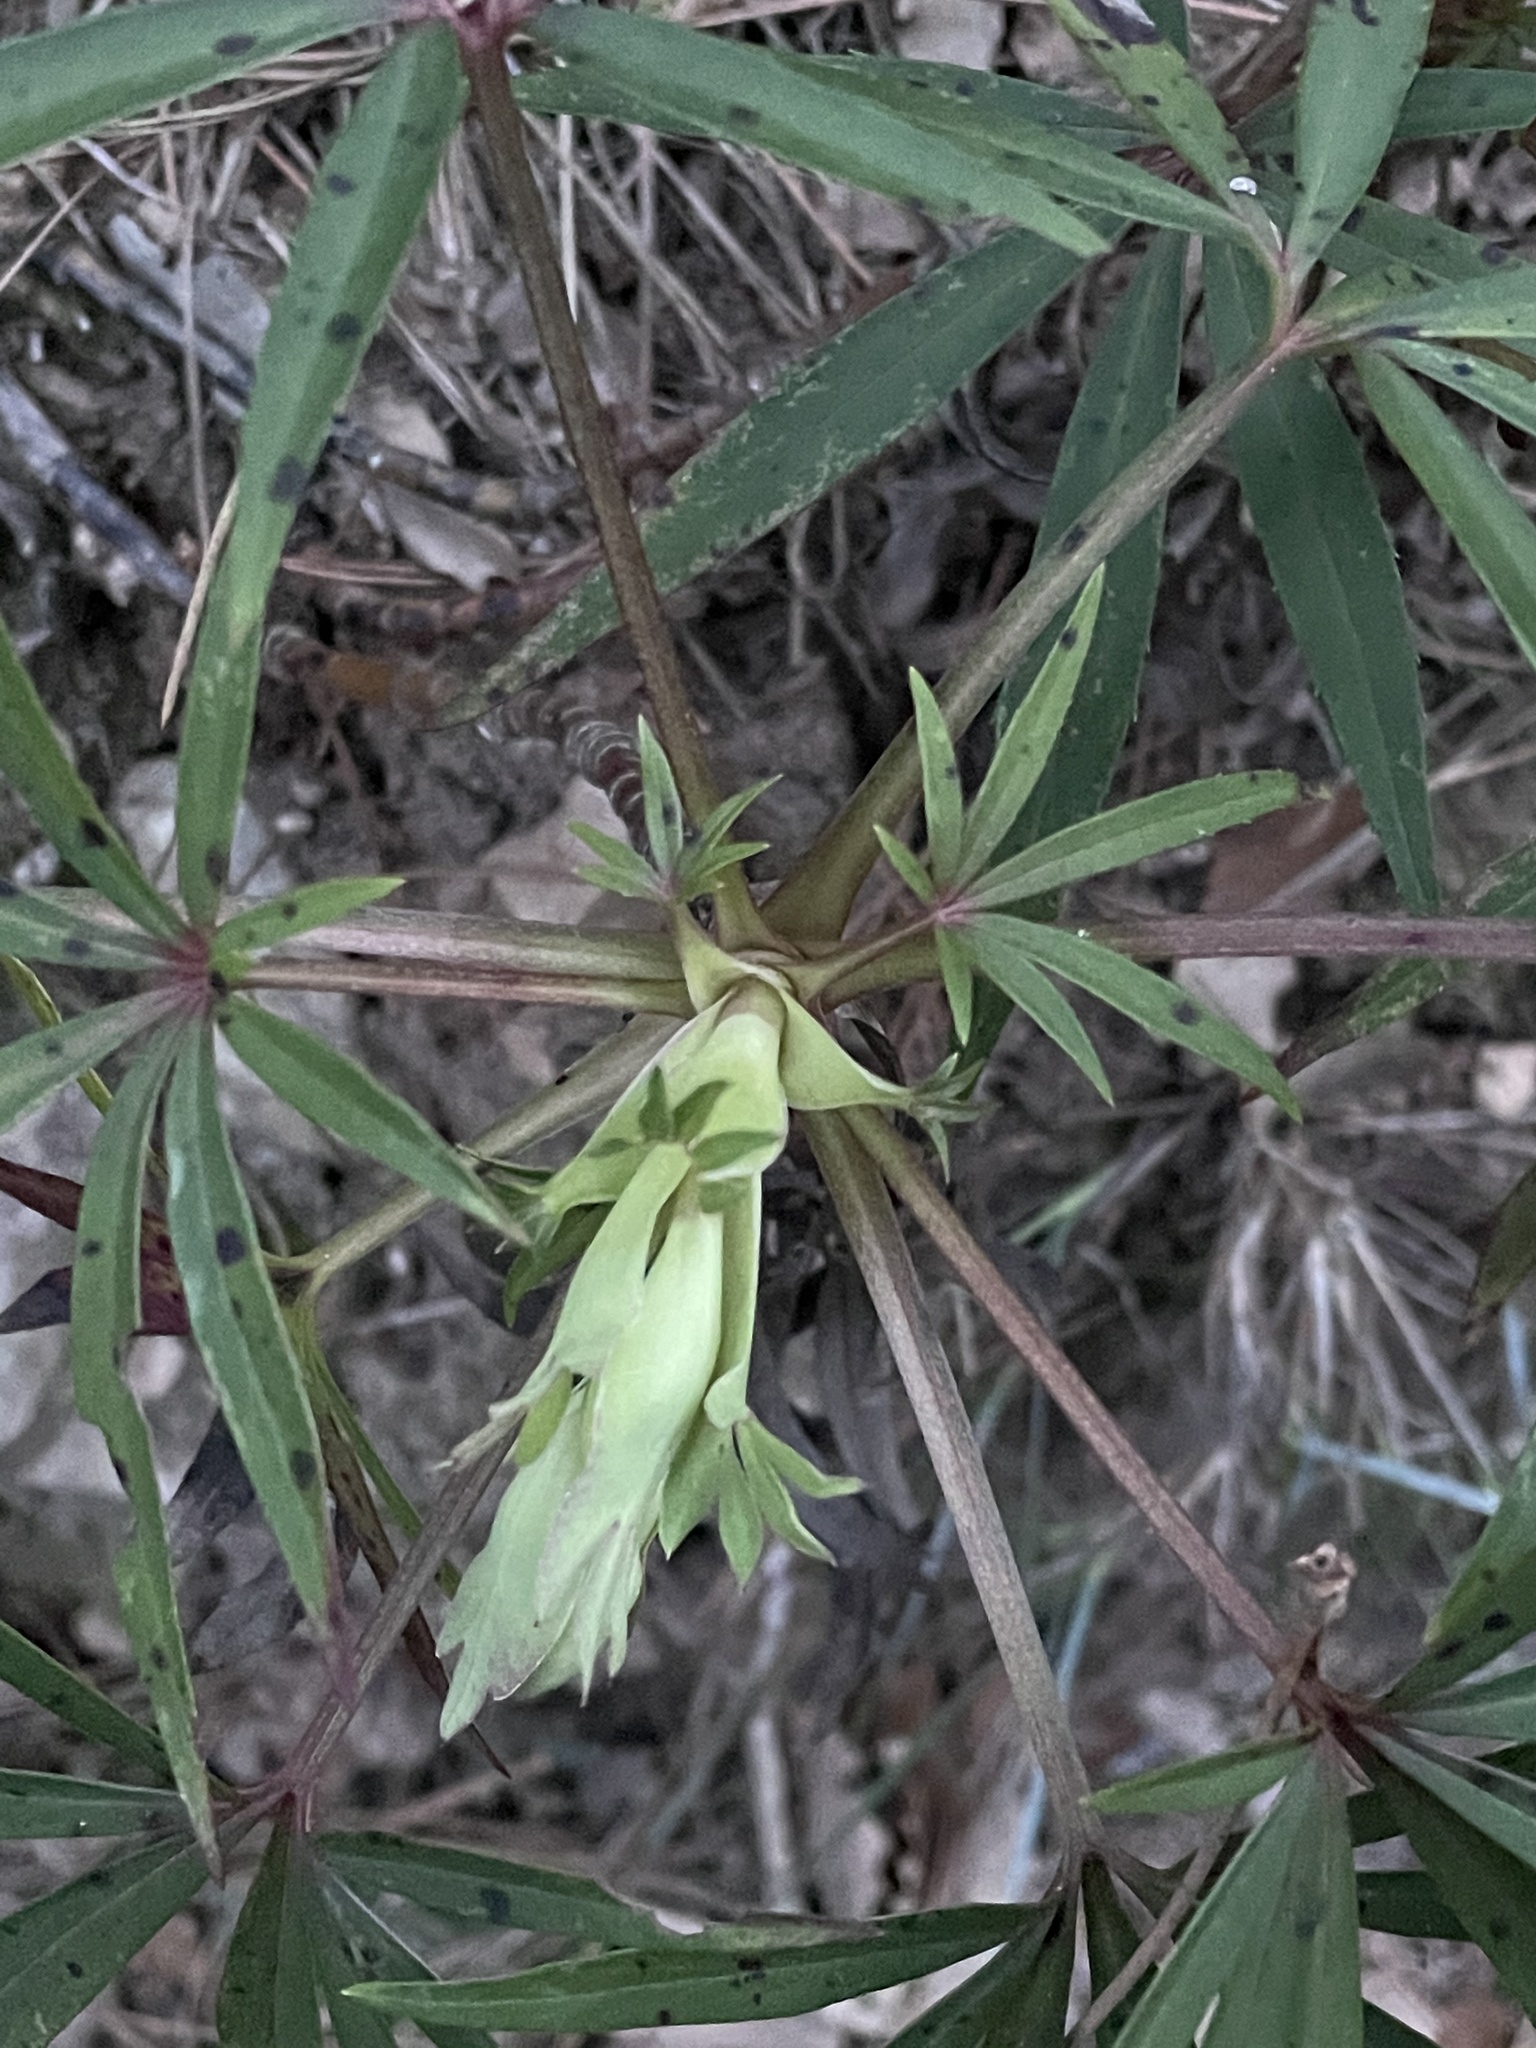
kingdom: Plantae
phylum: Tracheophyta
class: Magnoliopsida
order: Ranunculales
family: Ranunculaceae
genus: Helleborus
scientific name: Helleborus foetidus
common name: Stinking hellebore
